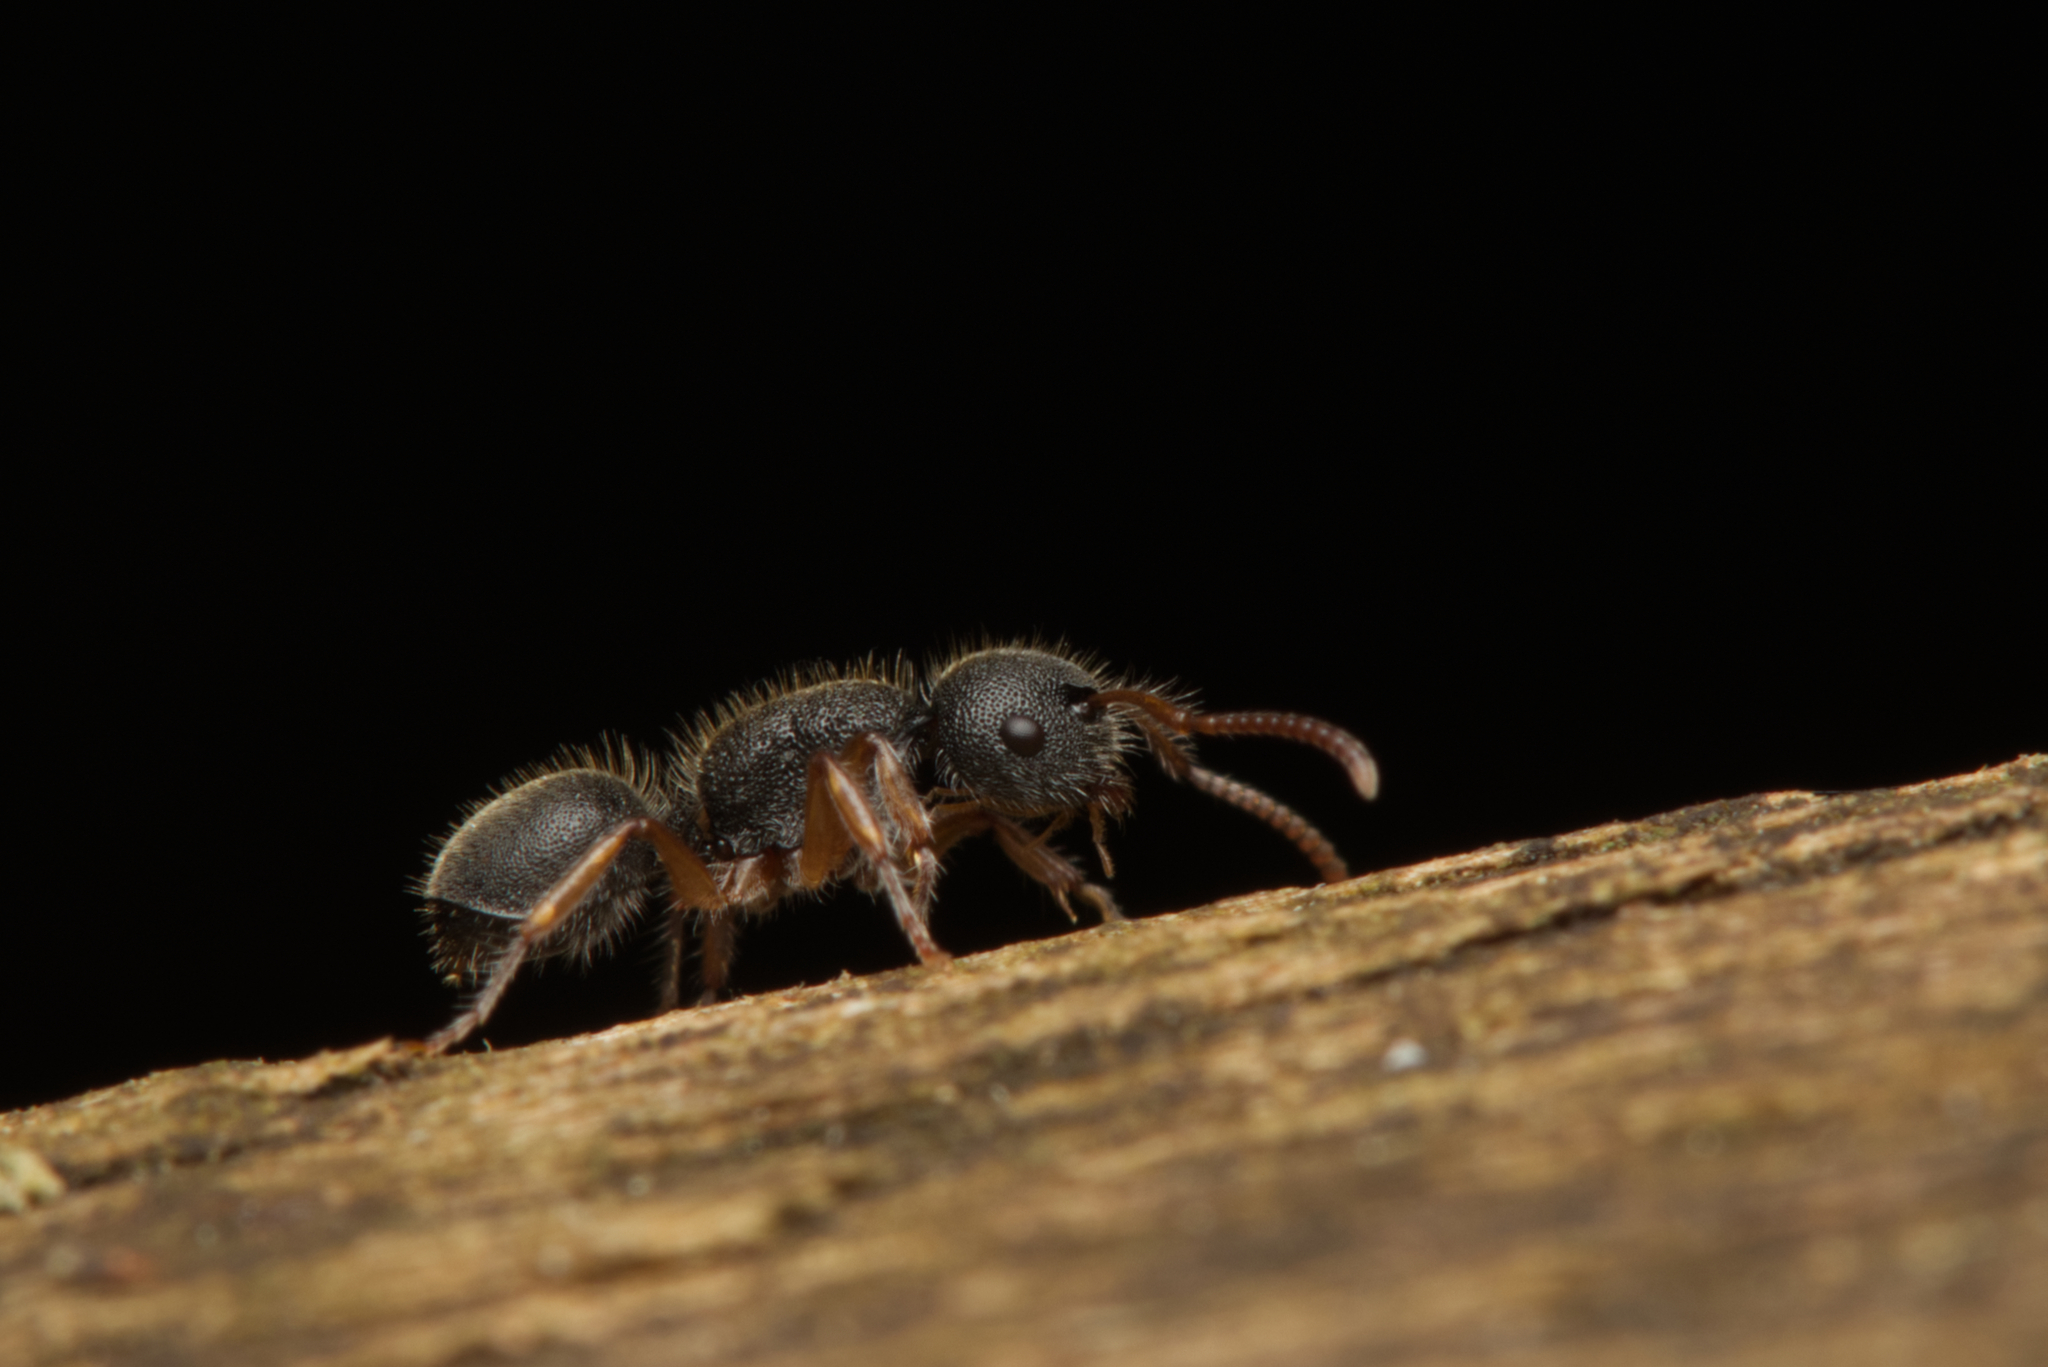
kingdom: Animalia
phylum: Arthropoda
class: Insecta
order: Hymenoptera
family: Formicidae
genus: Echinopla
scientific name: Echinopla turneri
